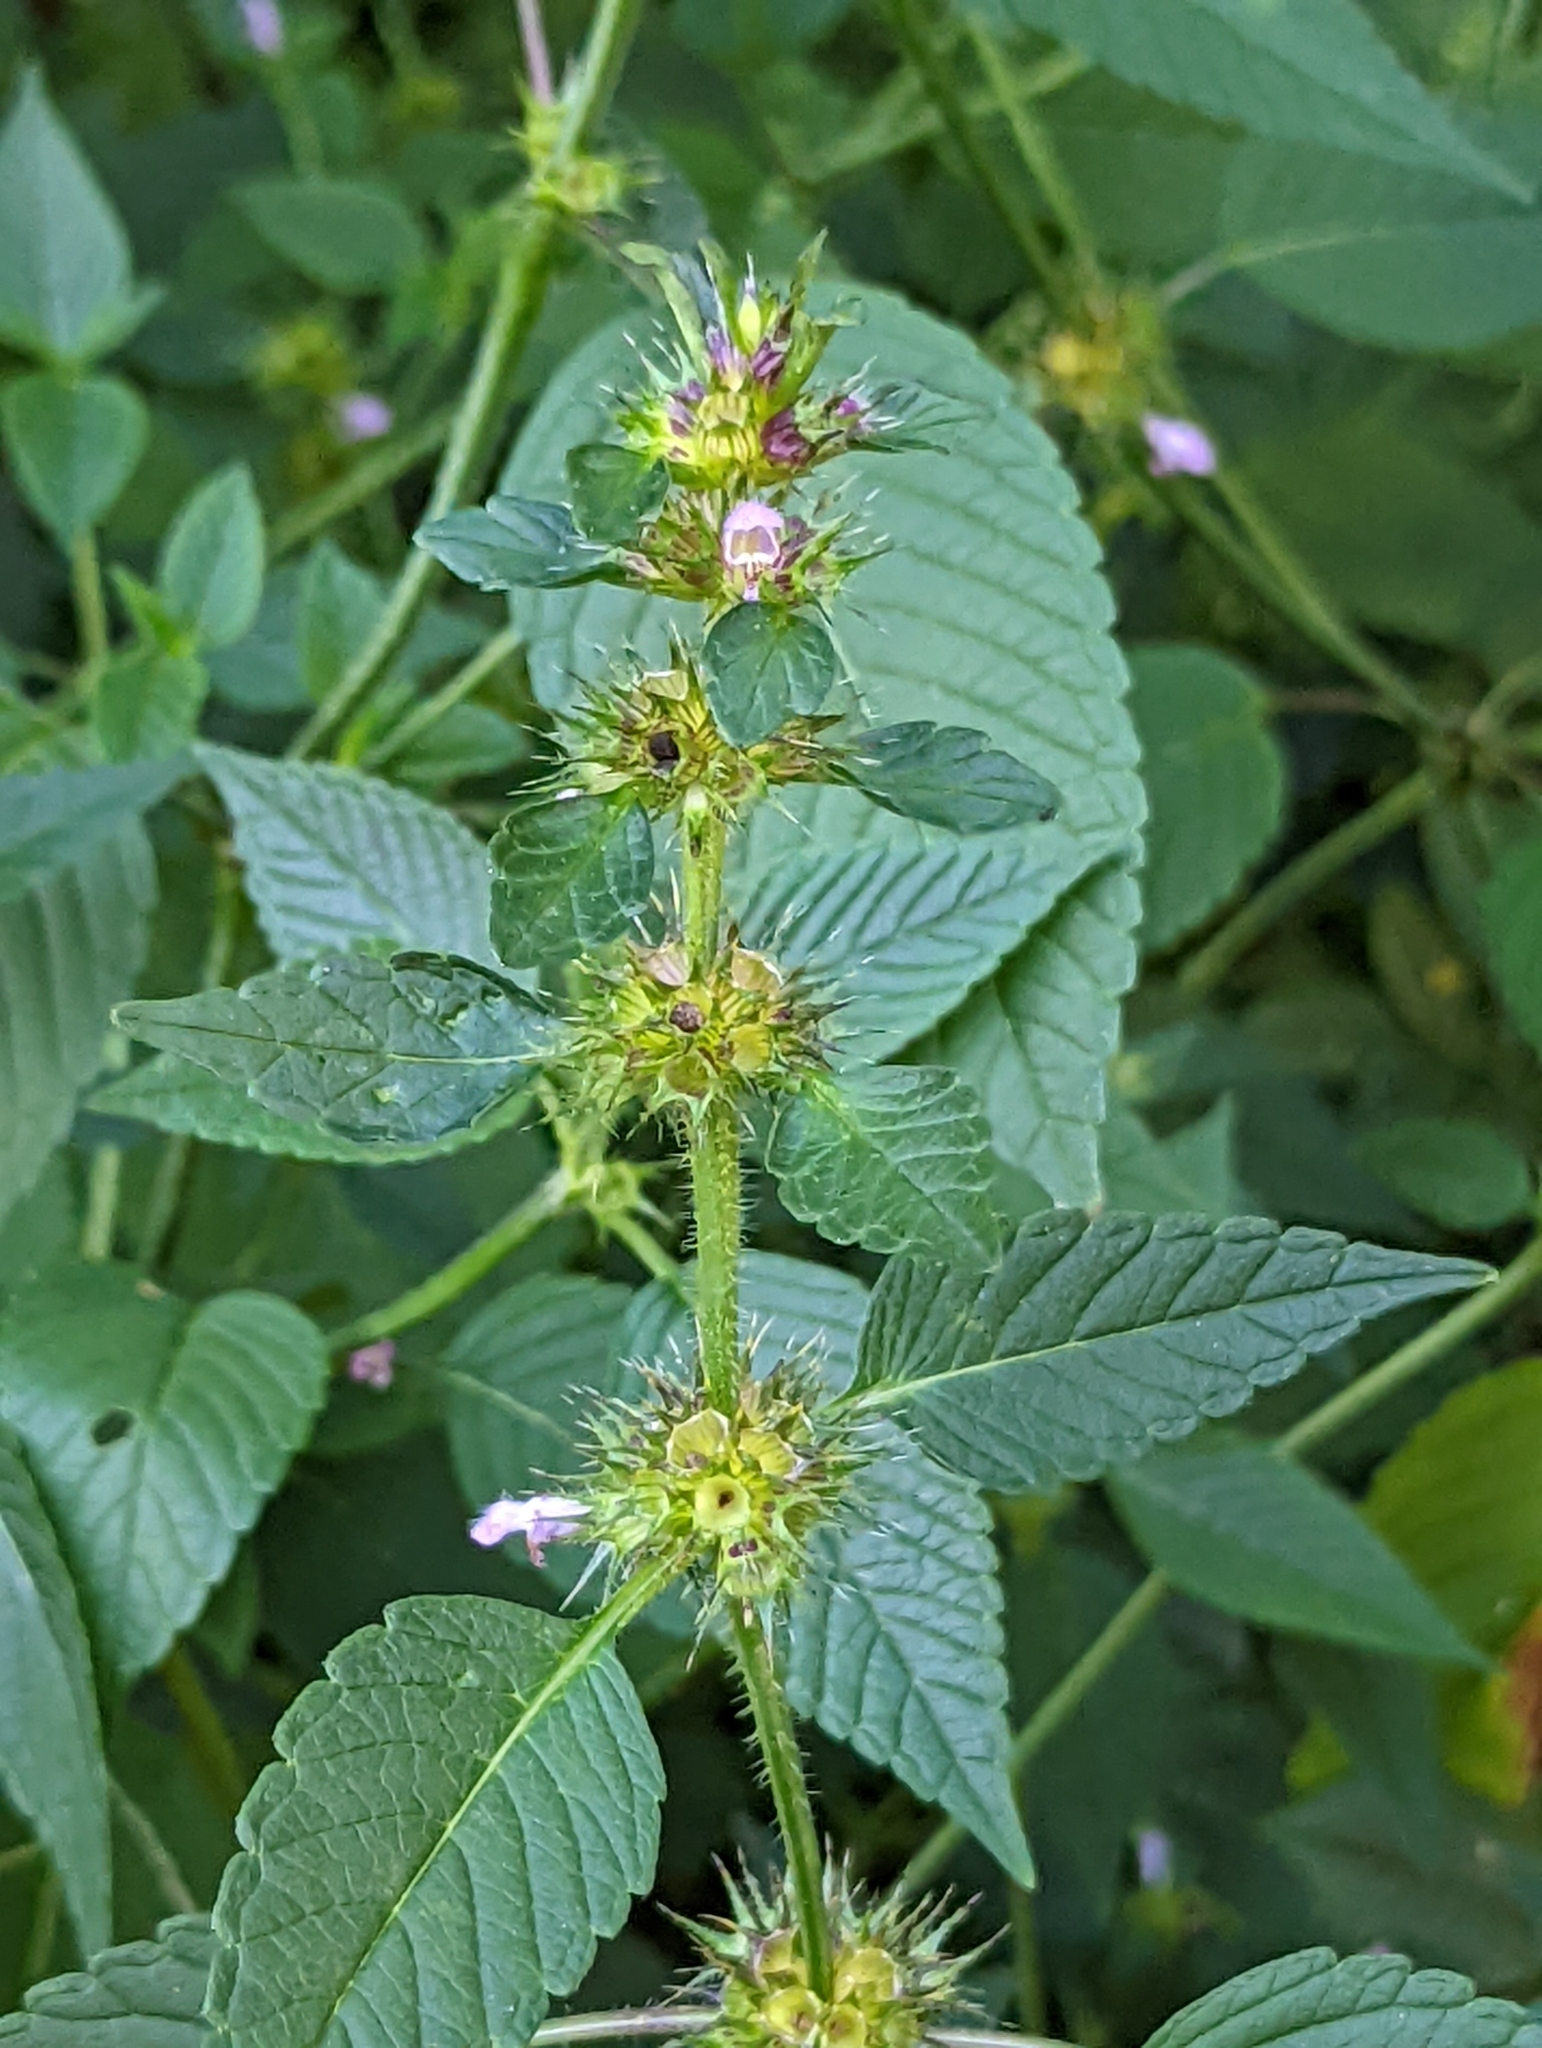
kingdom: Plantae
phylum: Tracheophyta
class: Magnoliopsida
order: Lamiales
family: Lamiaceae
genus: Galeopsis
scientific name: Galeopsis tetrahit
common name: Common hemp-nettle
